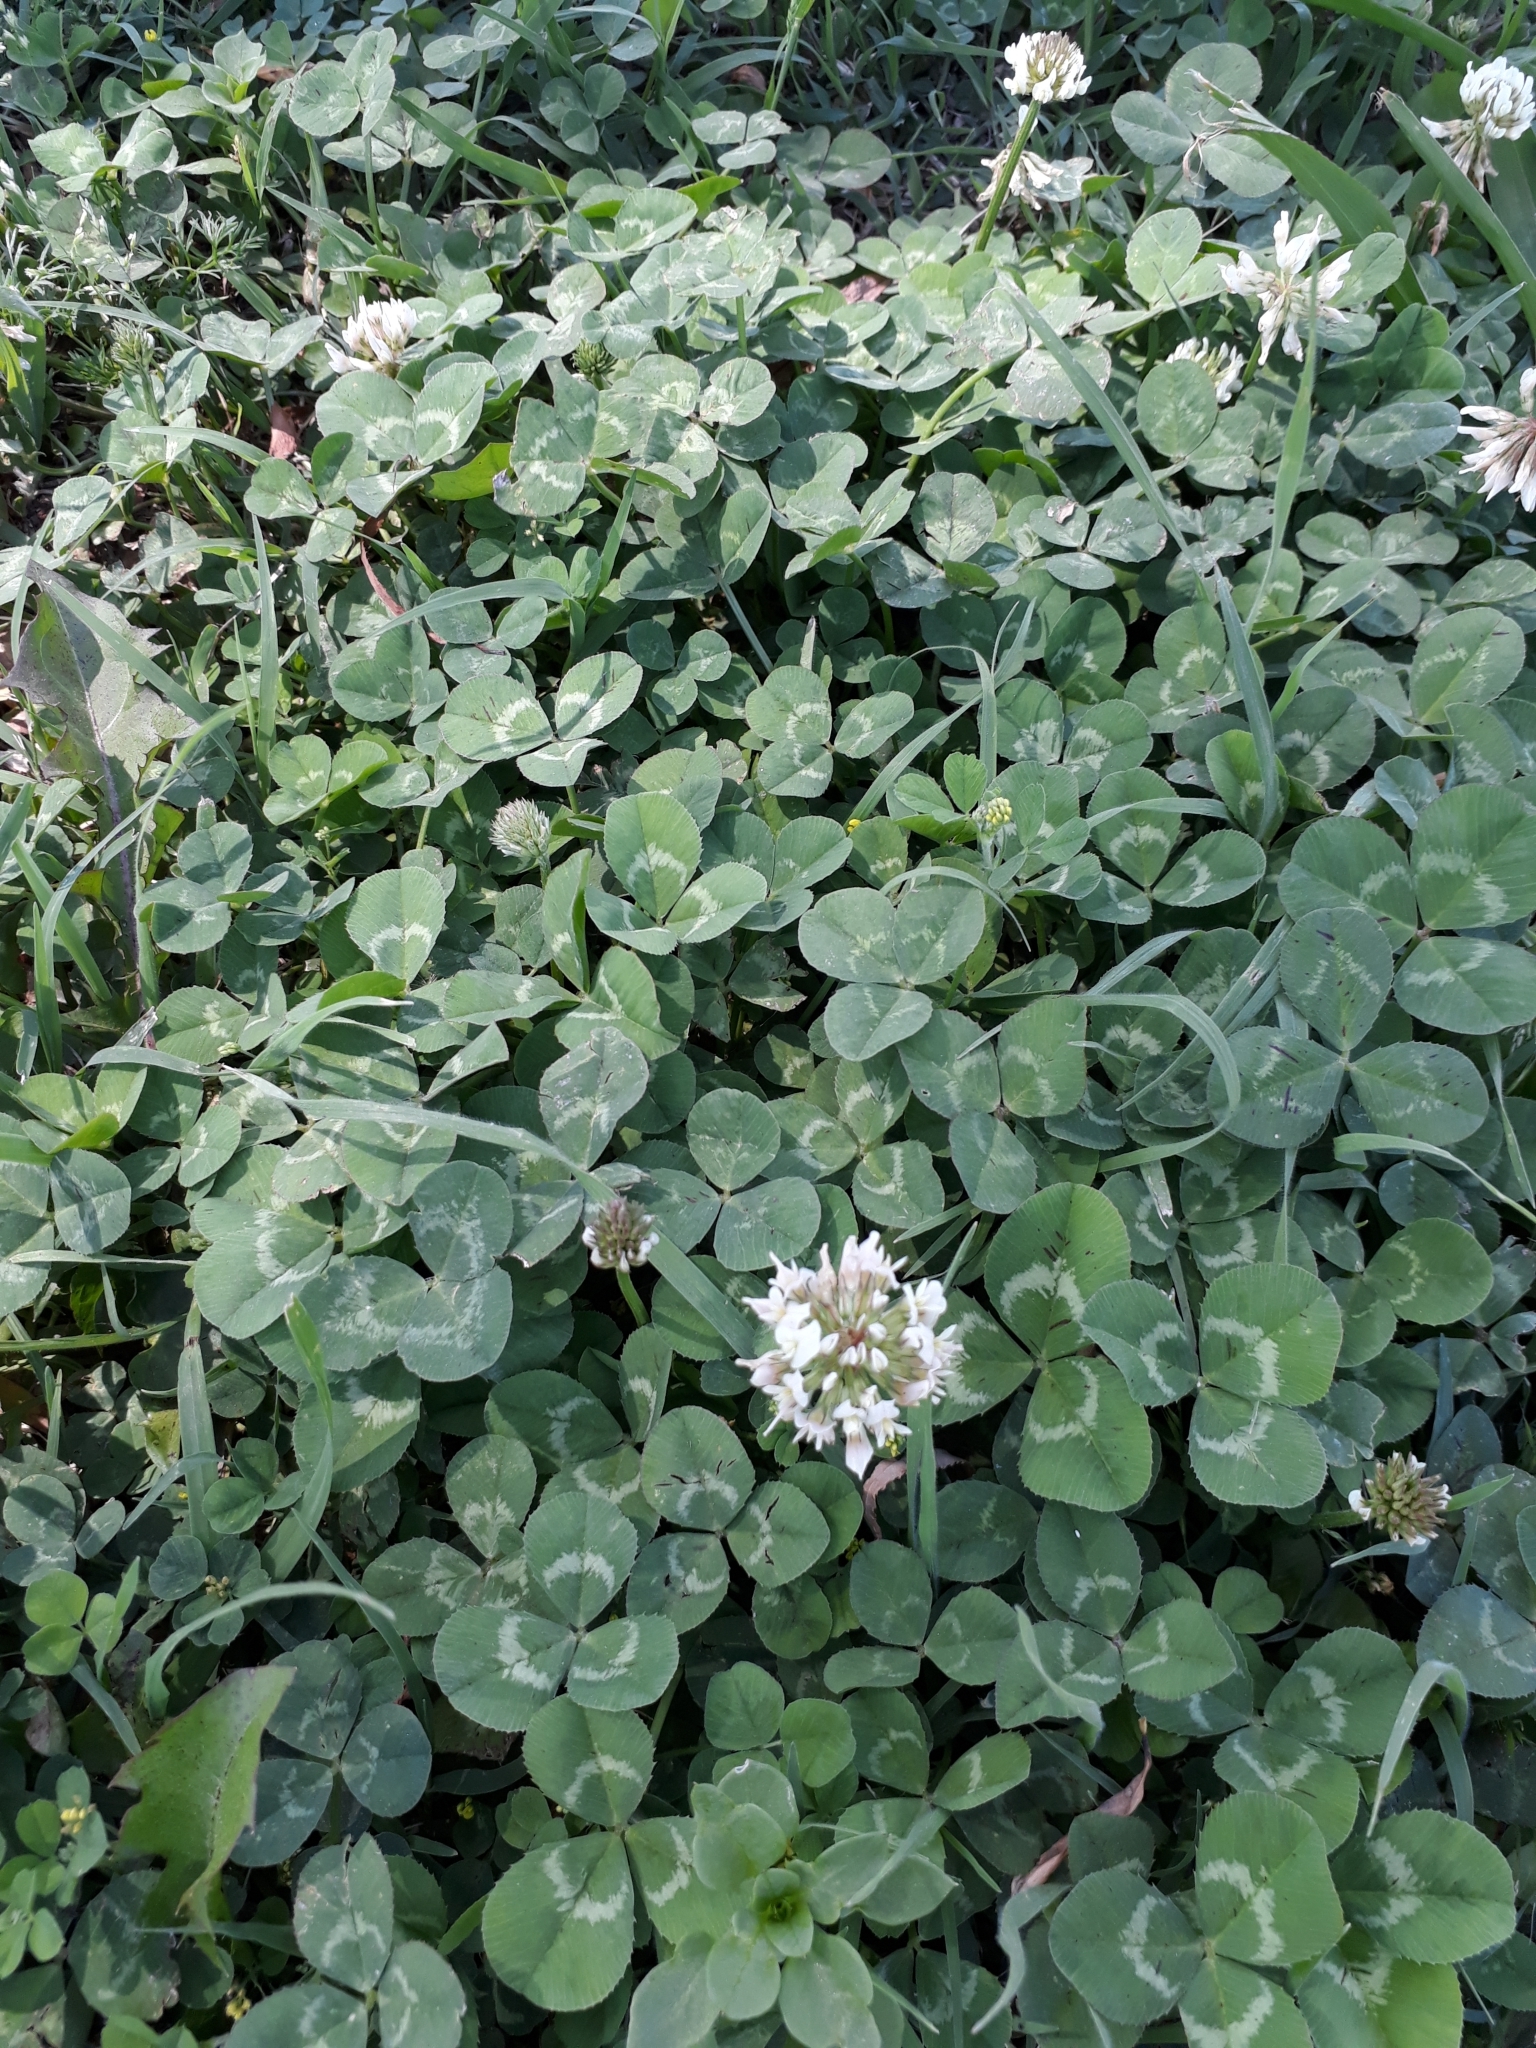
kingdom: Plantae
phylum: Tracheophyta
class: Magnoliopsida
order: Fabales
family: Fabaceae
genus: Trifolium
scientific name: Trifolium repens
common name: White clover
